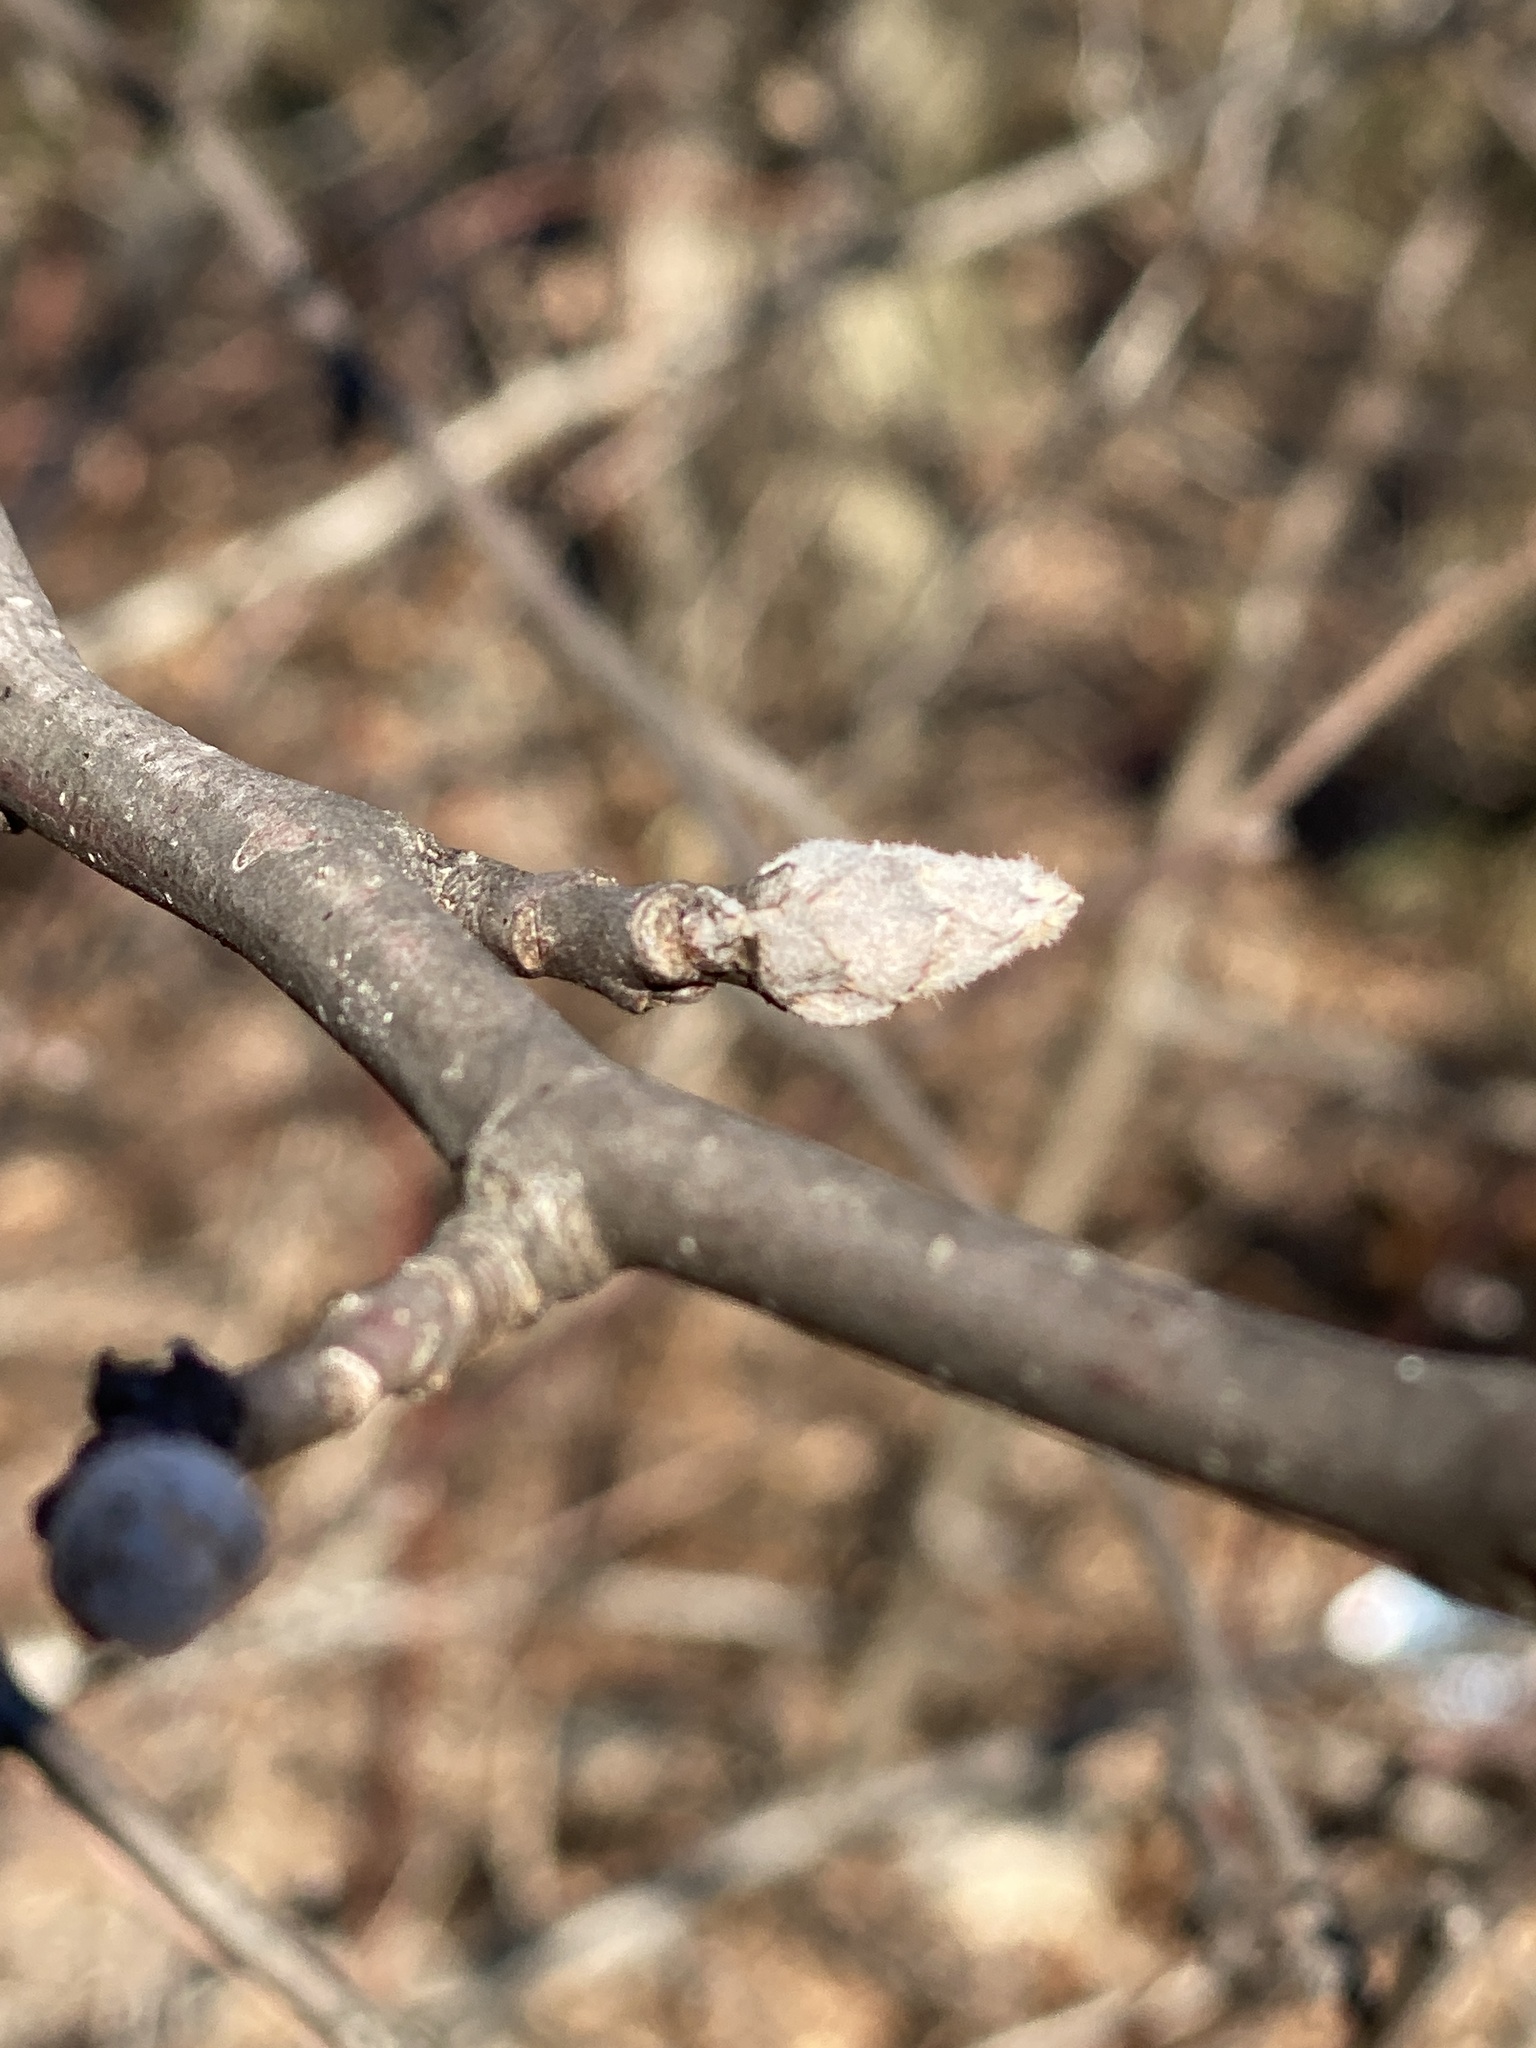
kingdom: Plantae
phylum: Tracheophyta
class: Magnoliopsida
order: Rosales
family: Rosaceae
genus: Pyrus
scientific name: Pyrus calleryana
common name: Callery pear
